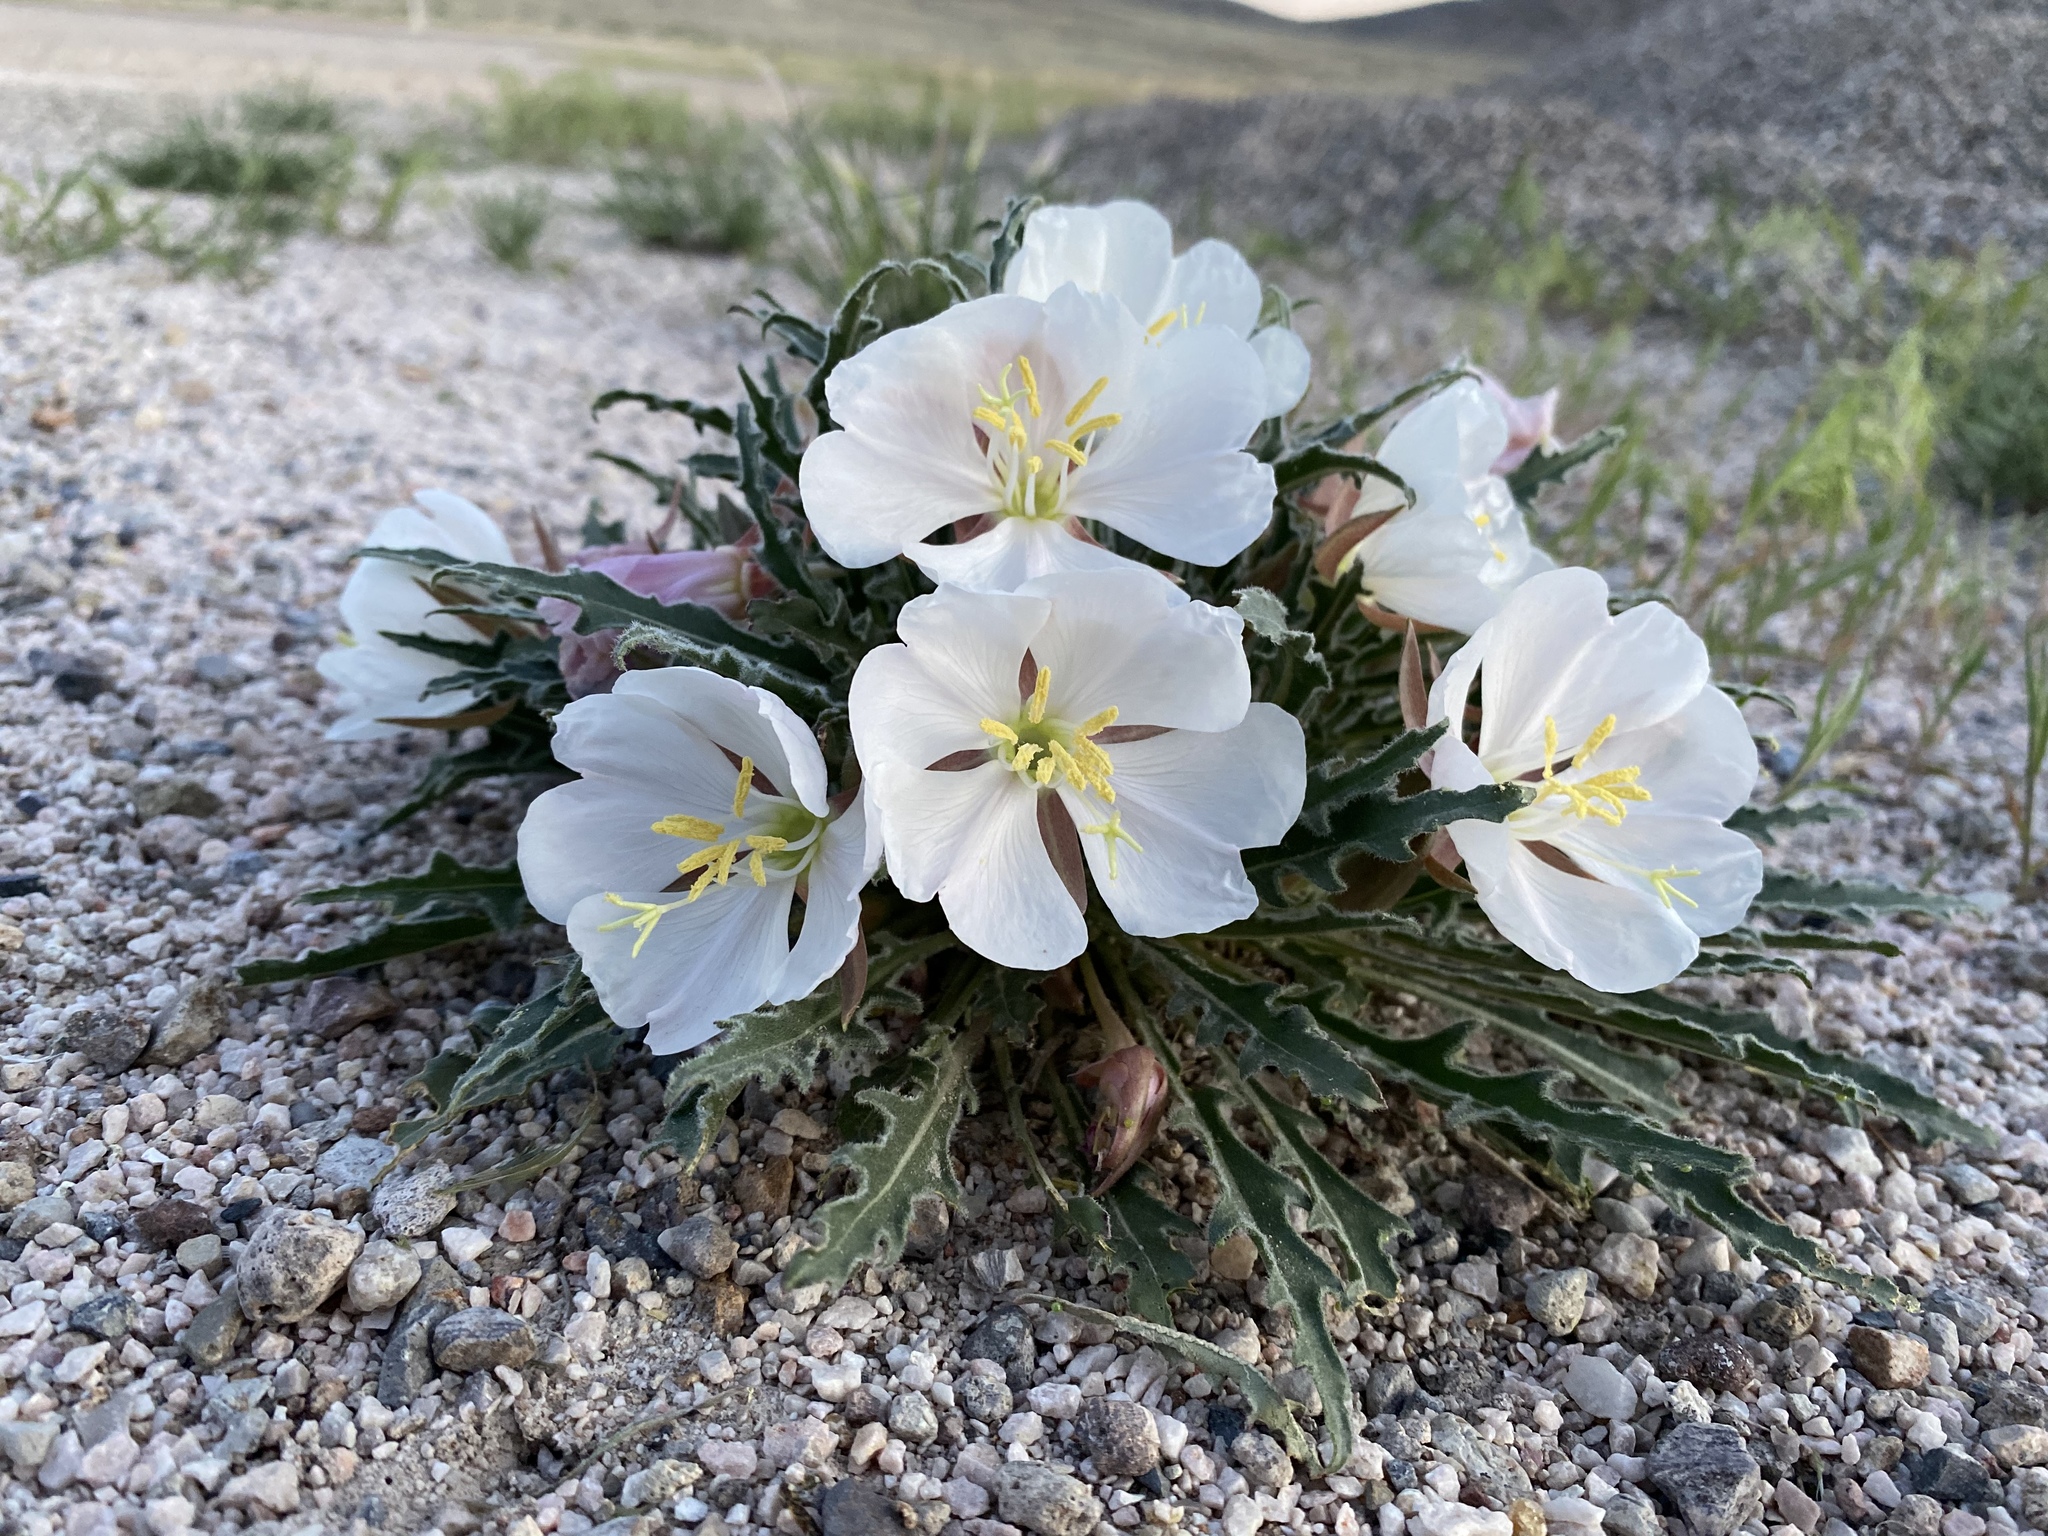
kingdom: Plantae
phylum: Tracheophyta
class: Magnoliopsida
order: Myrtales
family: Onagraceae
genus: Oenothera
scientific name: Oenothera cespitosa
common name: Tufted evening-primrose
